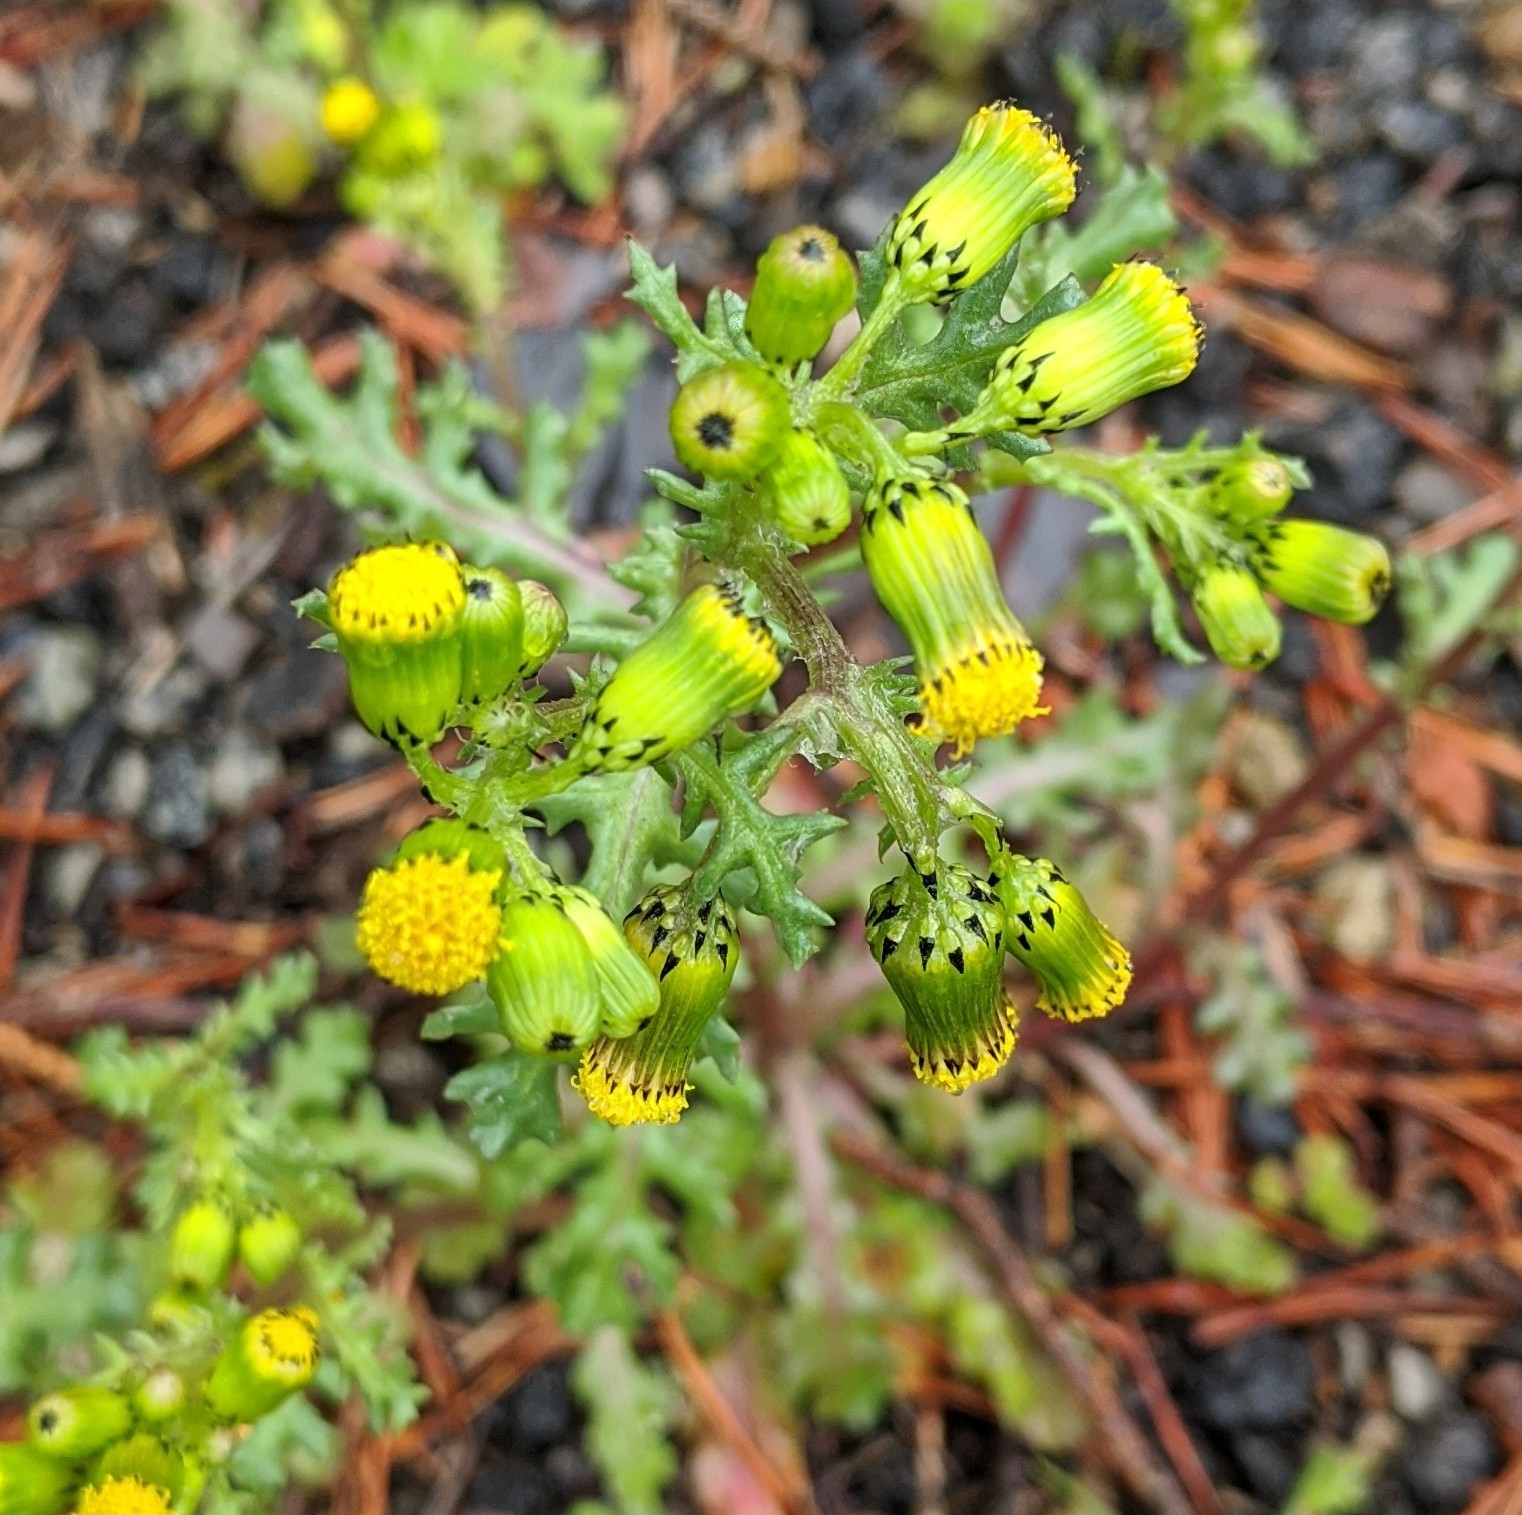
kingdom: Plantae
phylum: Tracheophyta
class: Magnoliopsida
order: Asterales
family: Asteraceae
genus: Senecio
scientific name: Senecio vulgaris
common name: Old-man-in-the-spring
